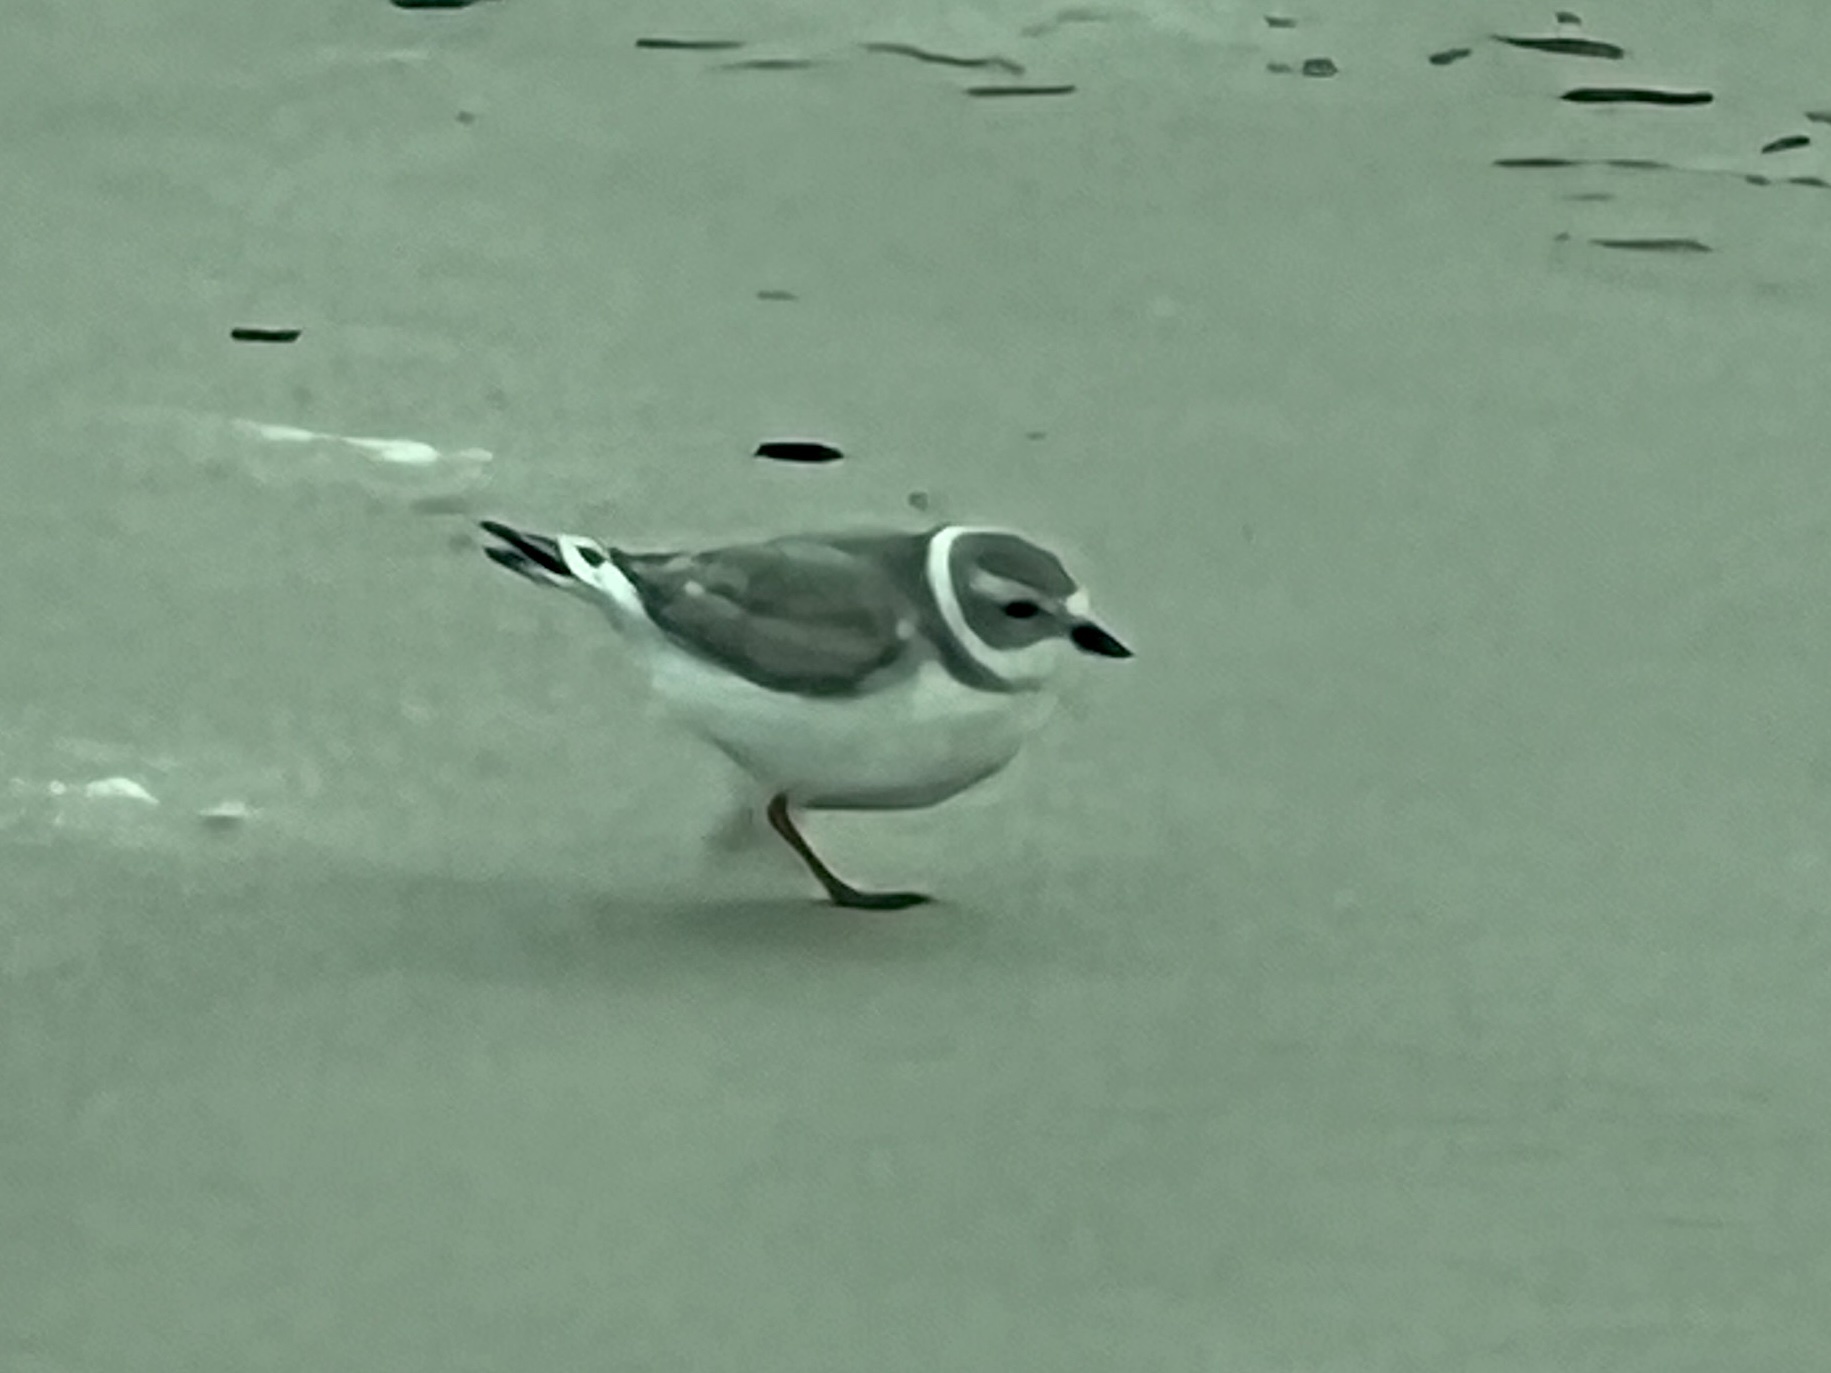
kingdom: Animalia
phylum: Chordata
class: Aves
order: Charadriiformes
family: Charadriidae
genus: Charadrius
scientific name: Charadrius melodus
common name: Piping plover
